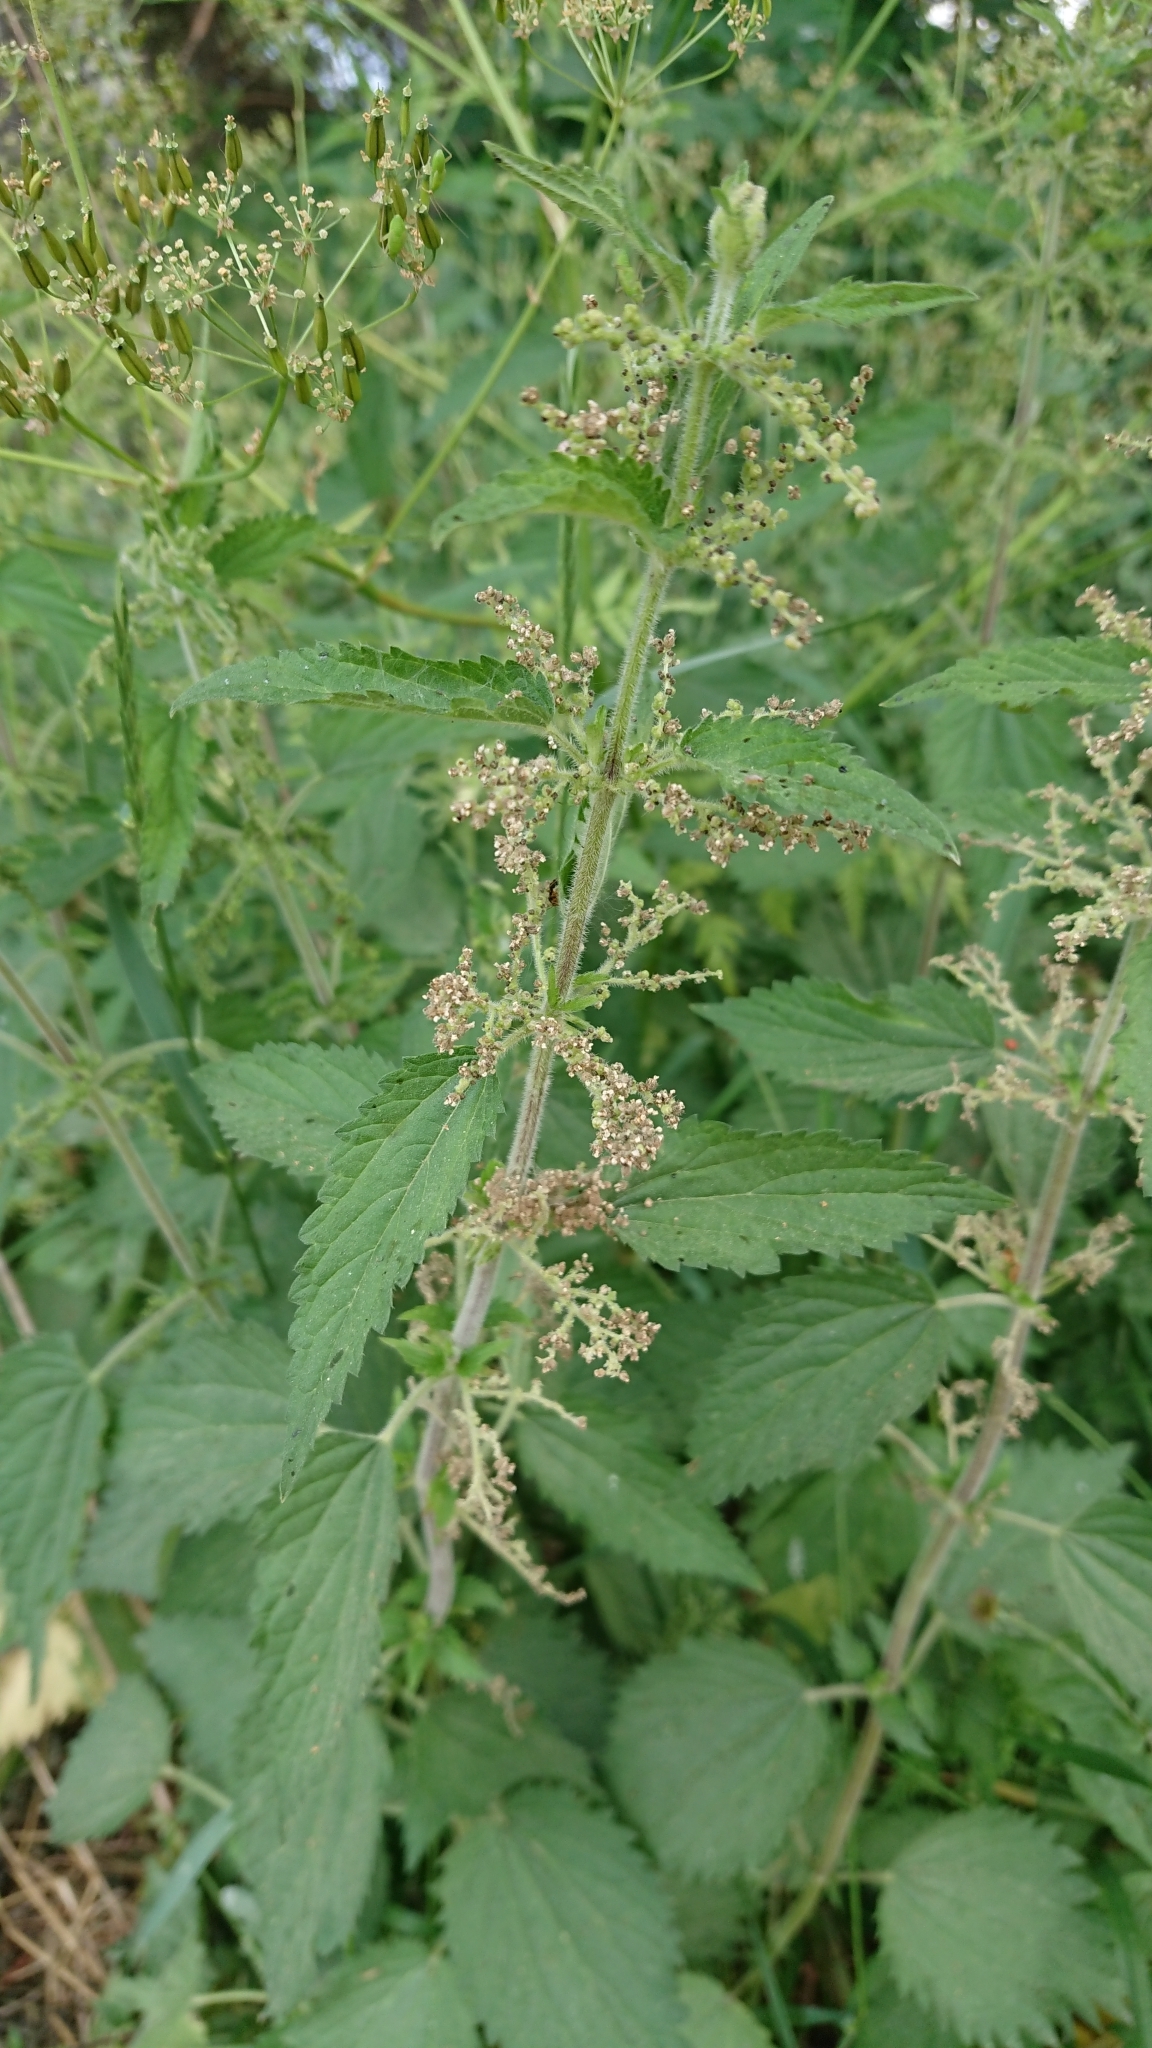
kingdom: Plantae
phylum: Tracheophyta
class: Magnoliopsida
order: Rosales
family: Urticaceae
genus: Urtica
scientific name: Urtica dioica
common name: Common nettle
